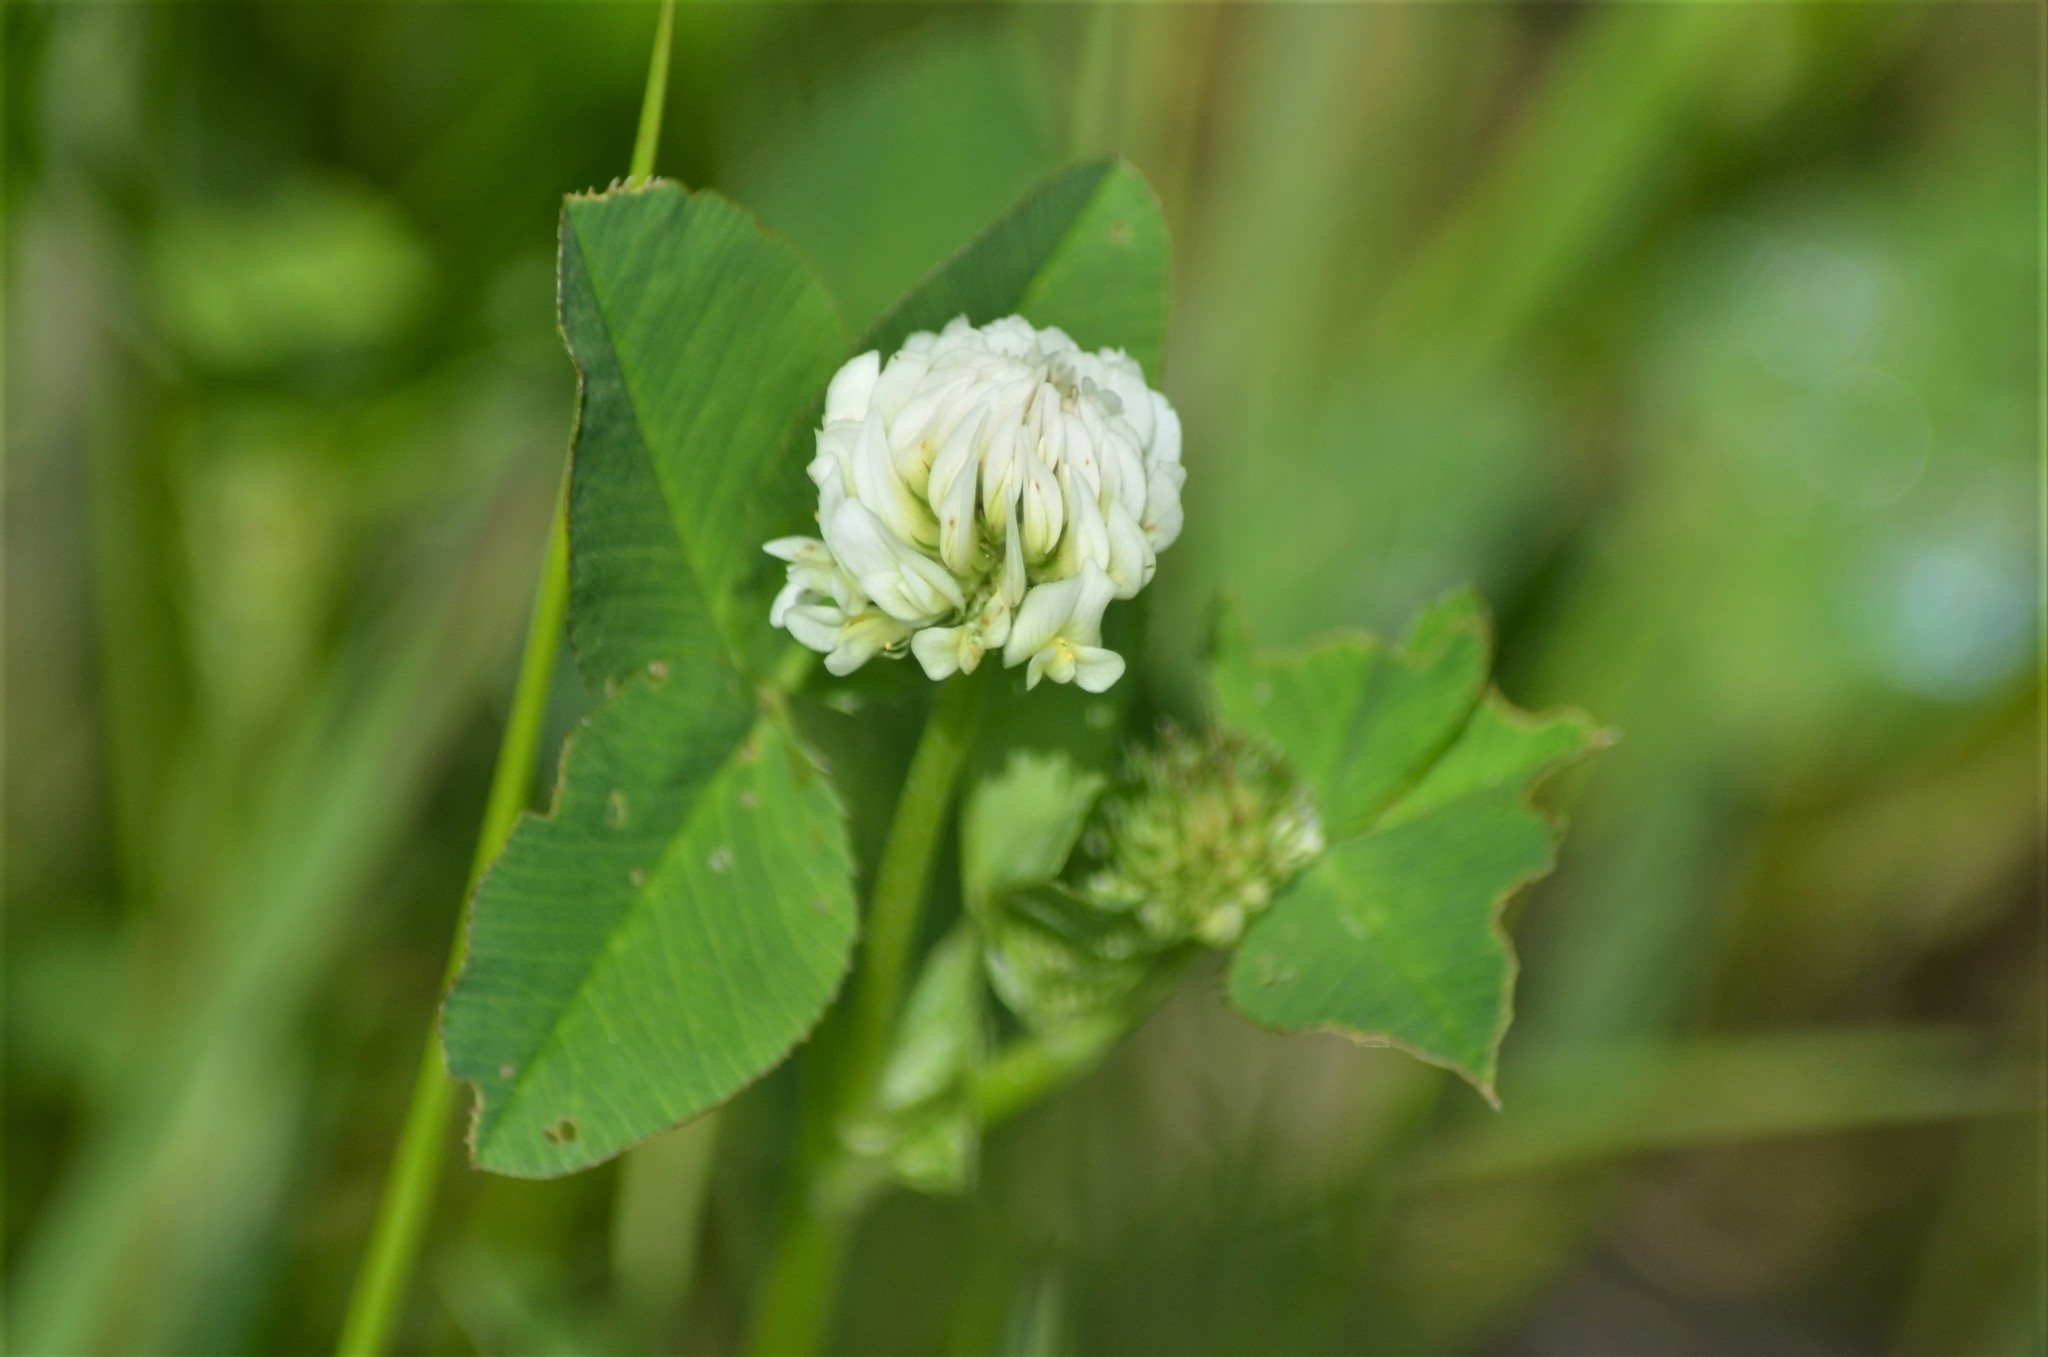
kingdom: Plantae
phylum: Tracheophyta
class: Magnoliopsida
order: Fabales
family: Fabaceae
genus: Trifolium
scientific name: Trifolium hybridum
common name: Alsike clover
